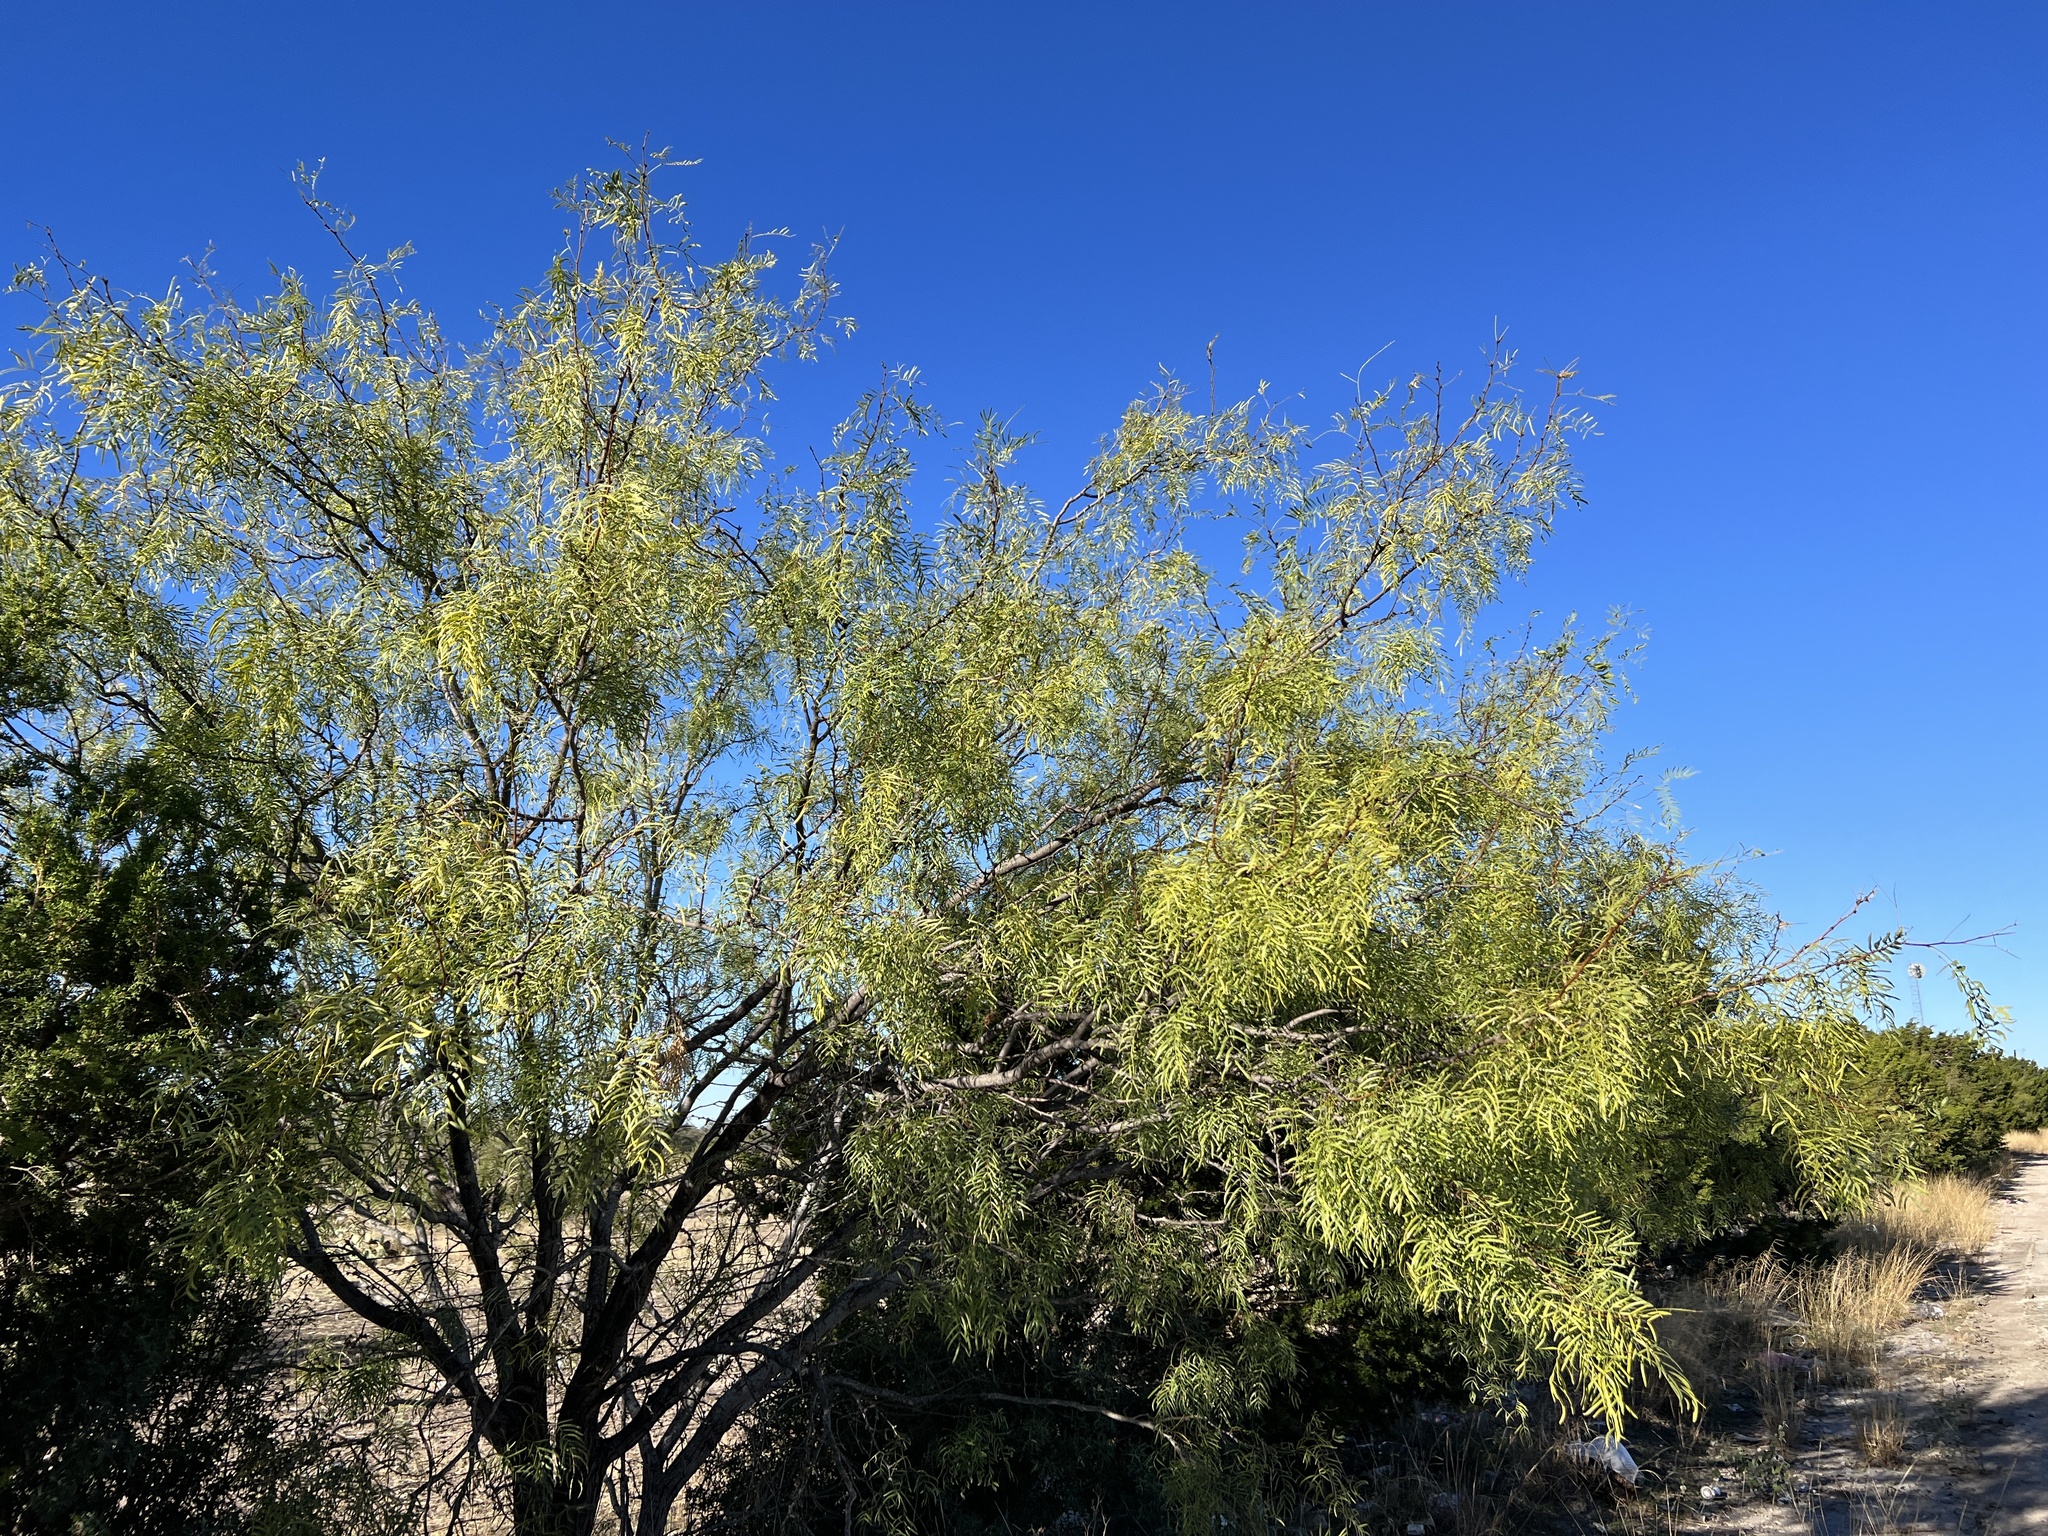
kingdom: Plantae
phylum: Tracheophyta
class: Magnoliopsida
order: Fabales
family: Fabaceae
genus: Prosopis
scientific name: Prosopis glandulosa
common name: Honey mesquite
